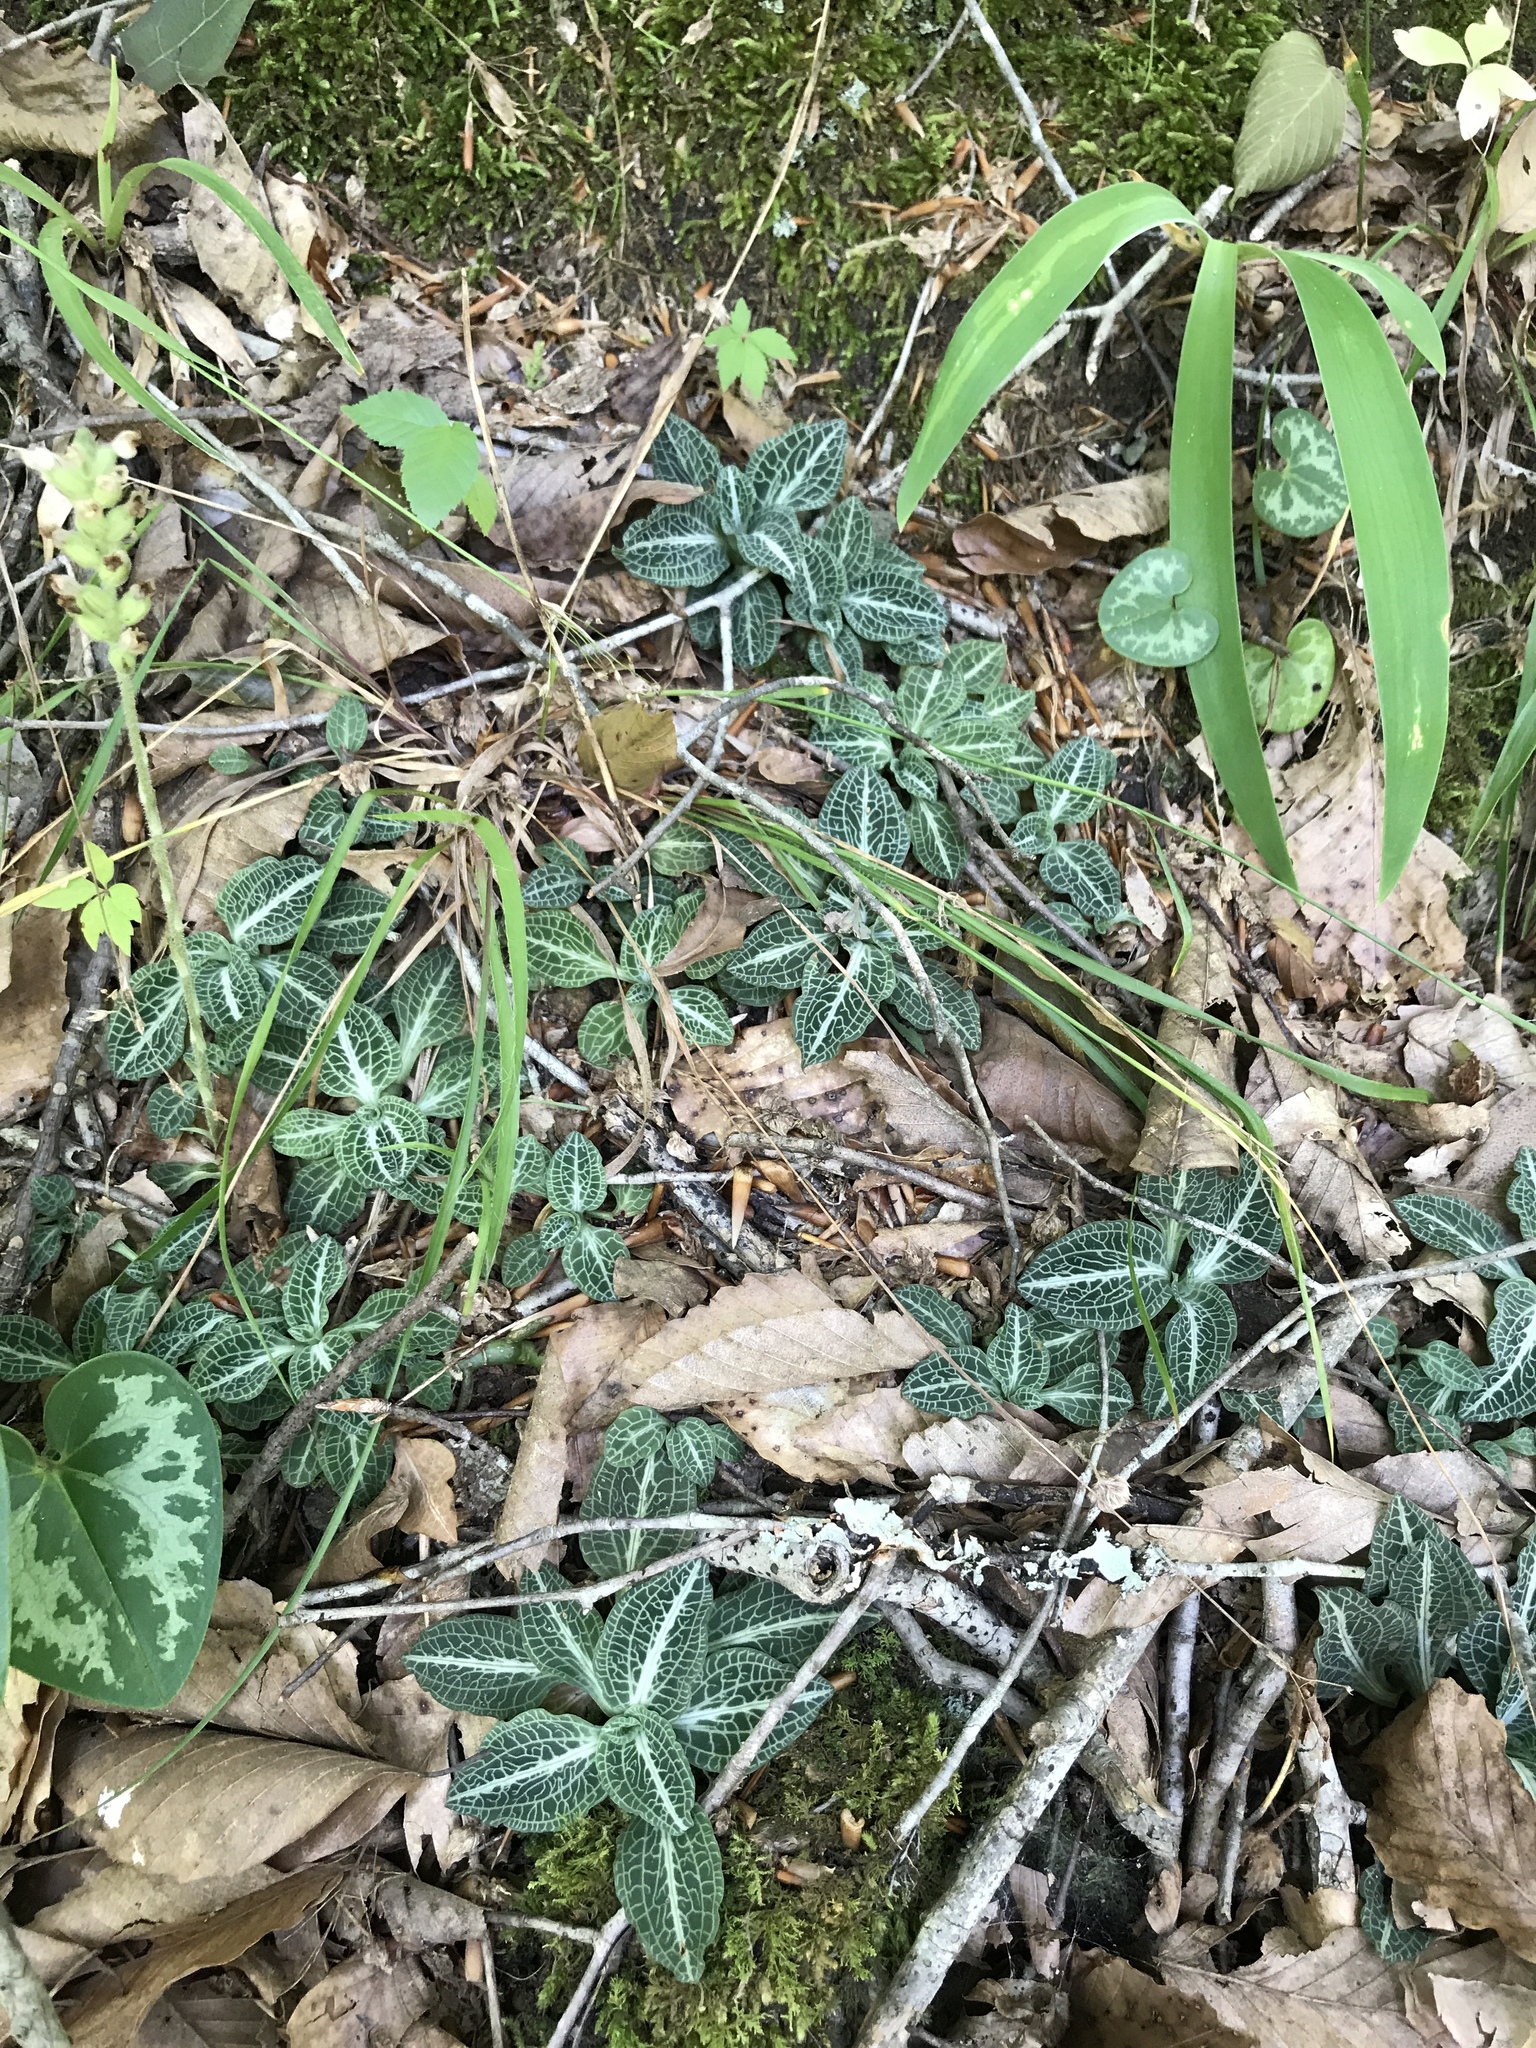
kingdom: Plantae
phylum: Tracheophyta
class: Liliopsida
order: Asparagales
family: Orchidaceae
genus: Goodyera
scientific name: Goodyera pubescens
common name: Downy rattlesnake-plantain
